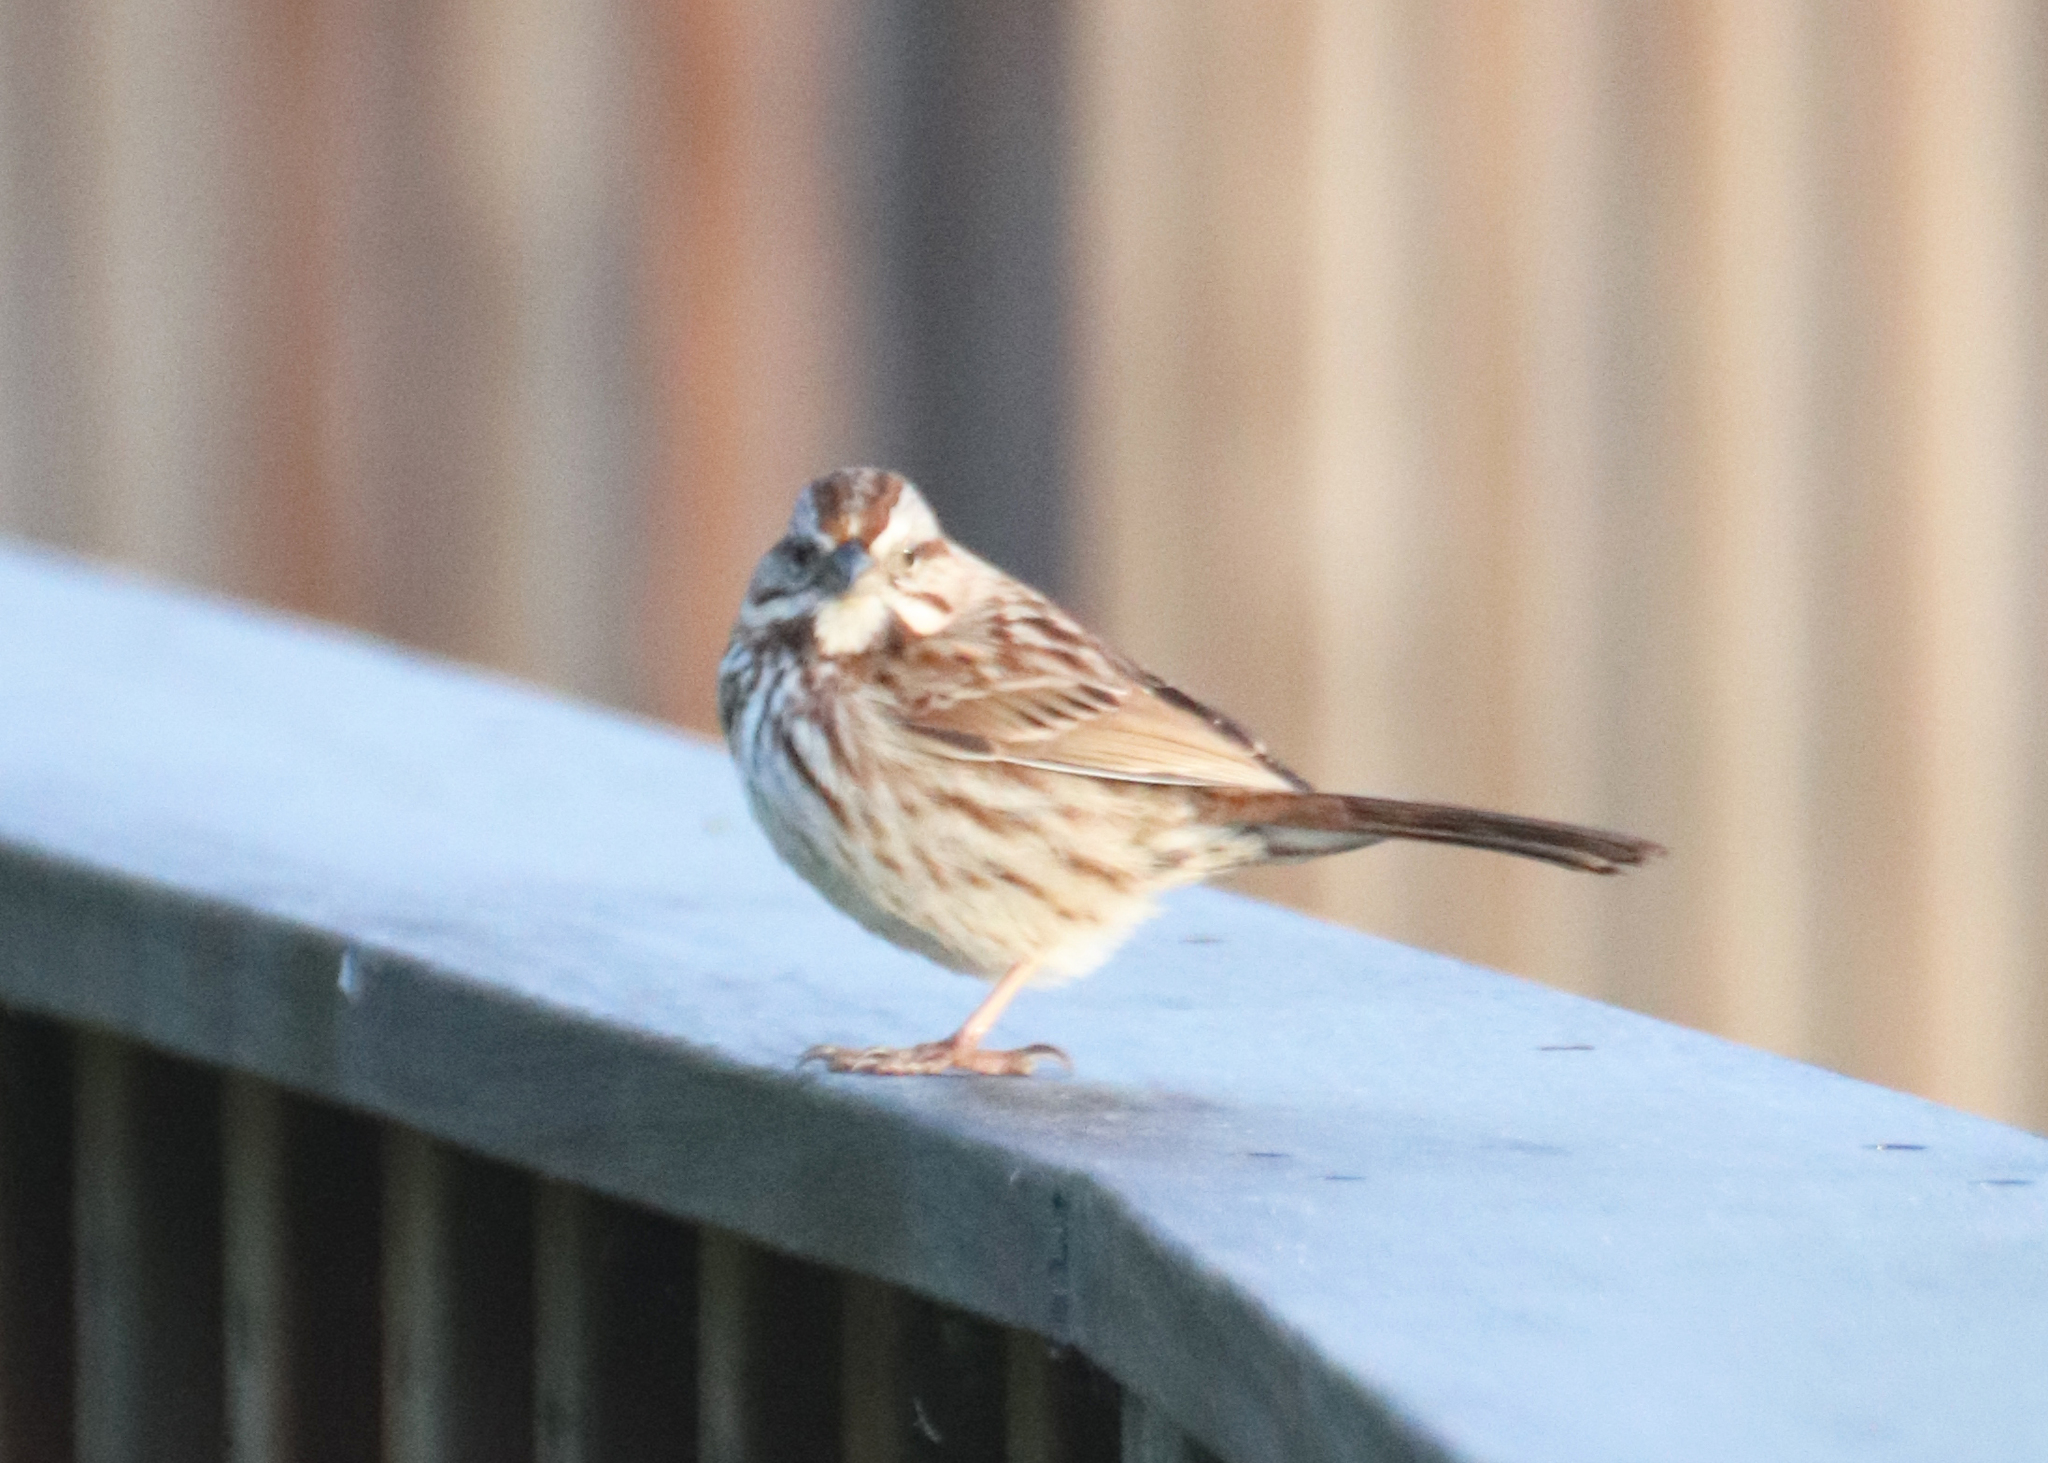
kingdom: Animalia
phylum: Chordata
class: Aves
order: Passeriformes
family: Passerellidae
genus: Melospiza
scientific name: Melospiza melodia
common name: Song sparrow
